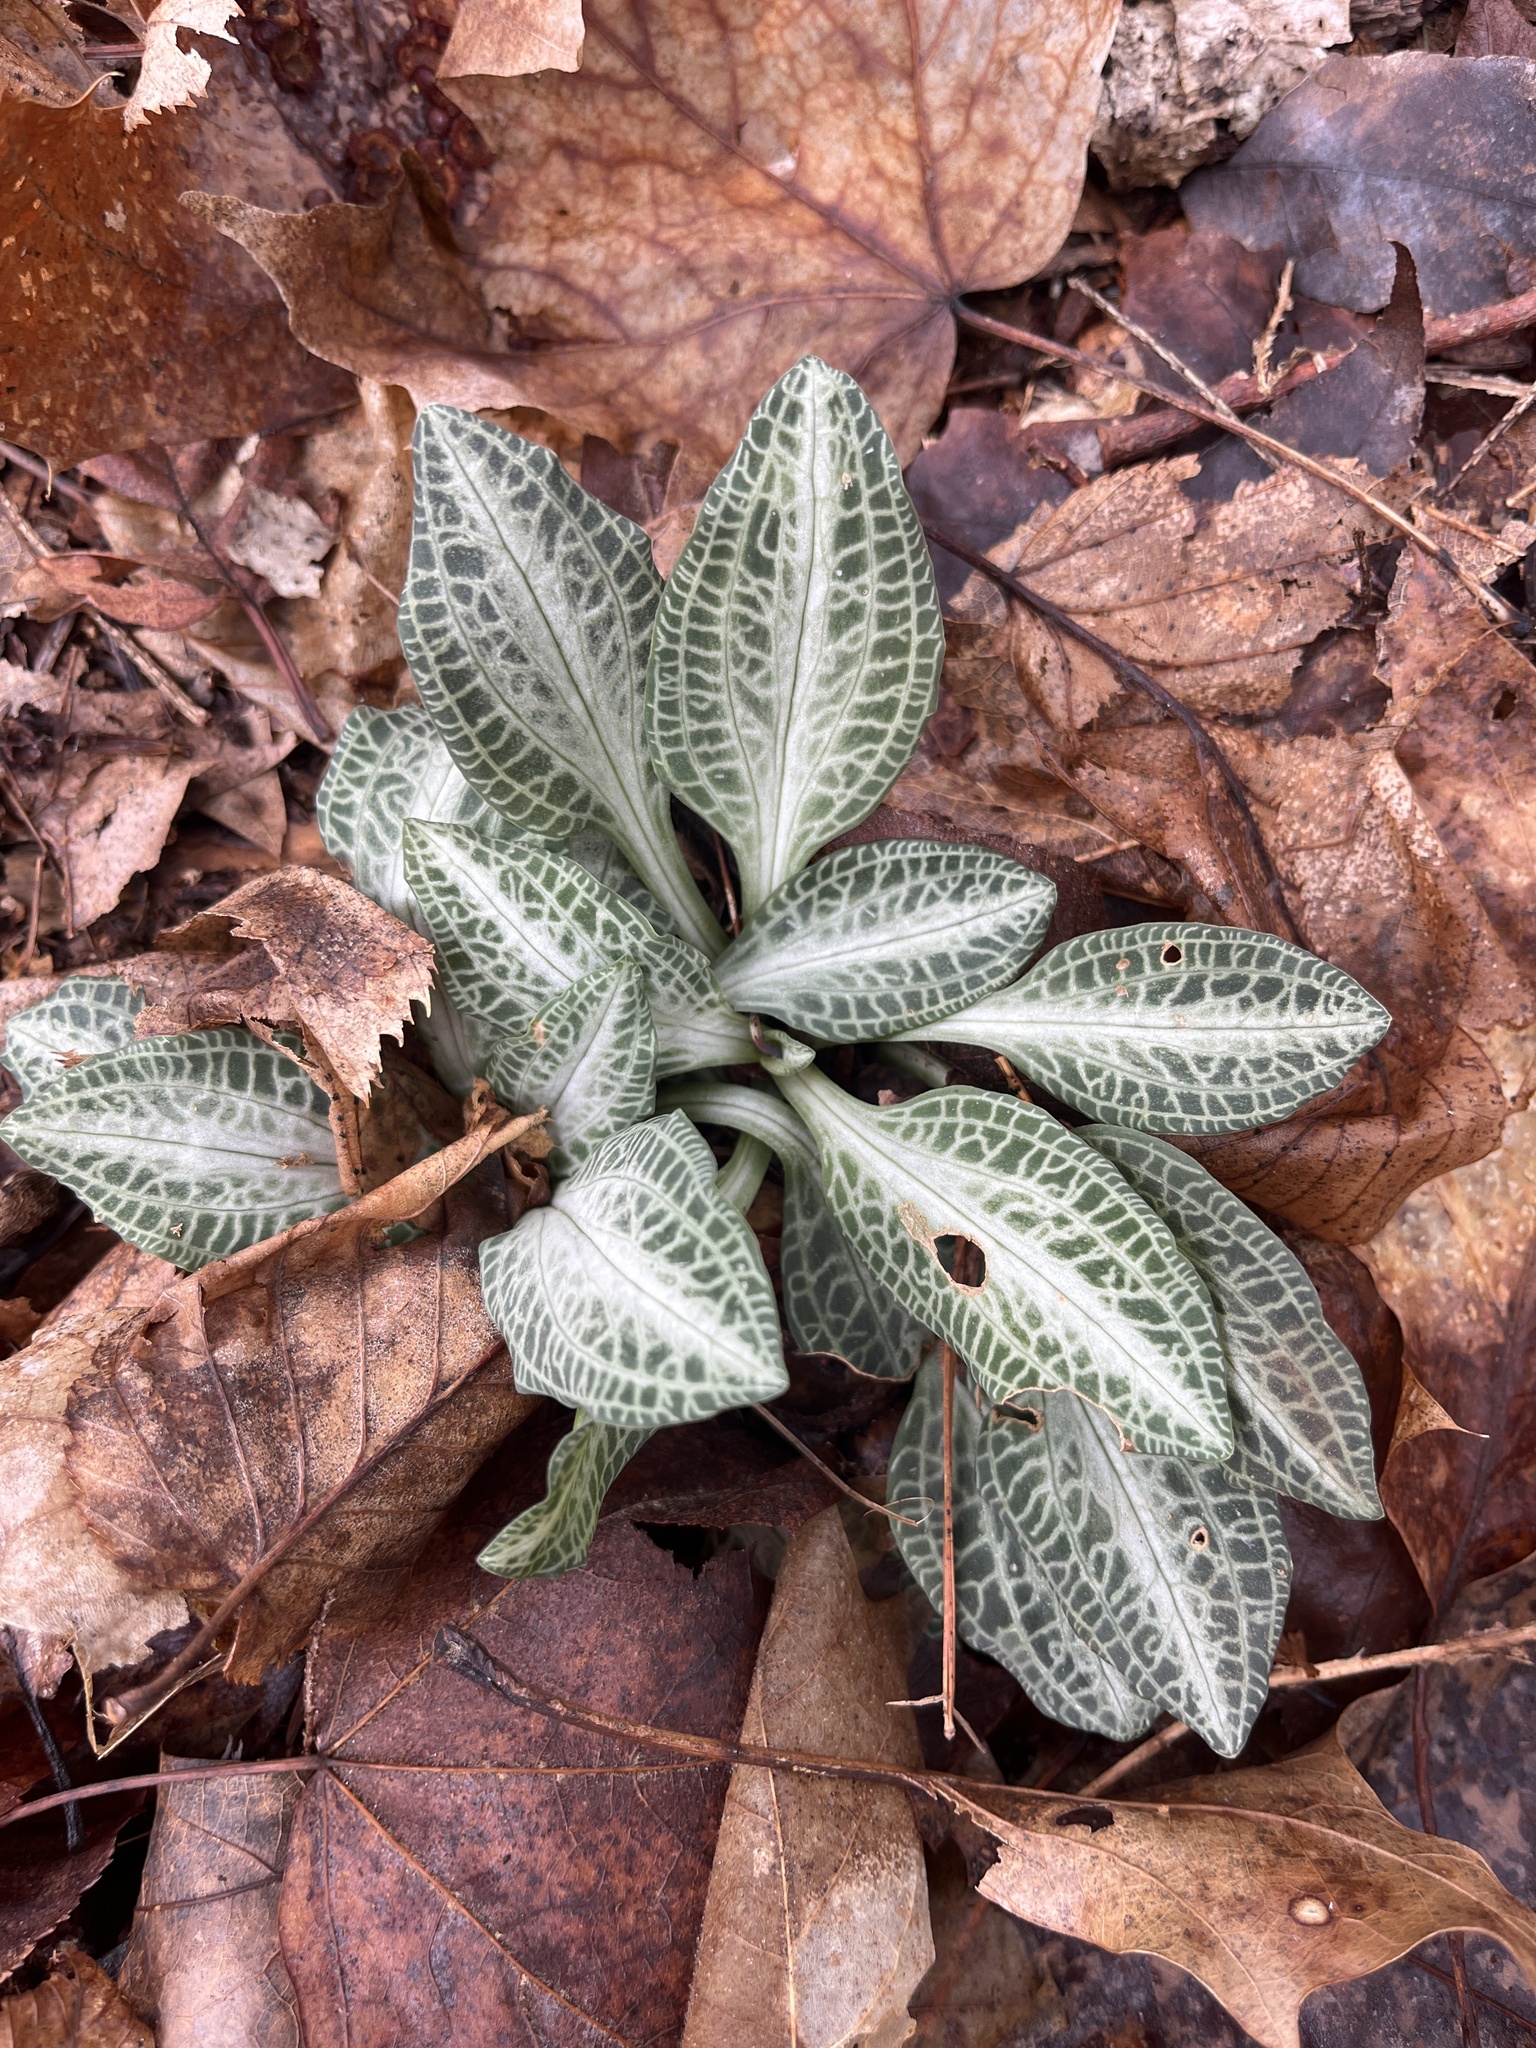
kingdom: Plantae
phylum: Tracheophyta
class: Liliopsida
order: Asparagales
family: Orchidaceae
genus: Goodyera
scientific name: Goodyera pubescens
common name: Downy rattlesnake-plantain
